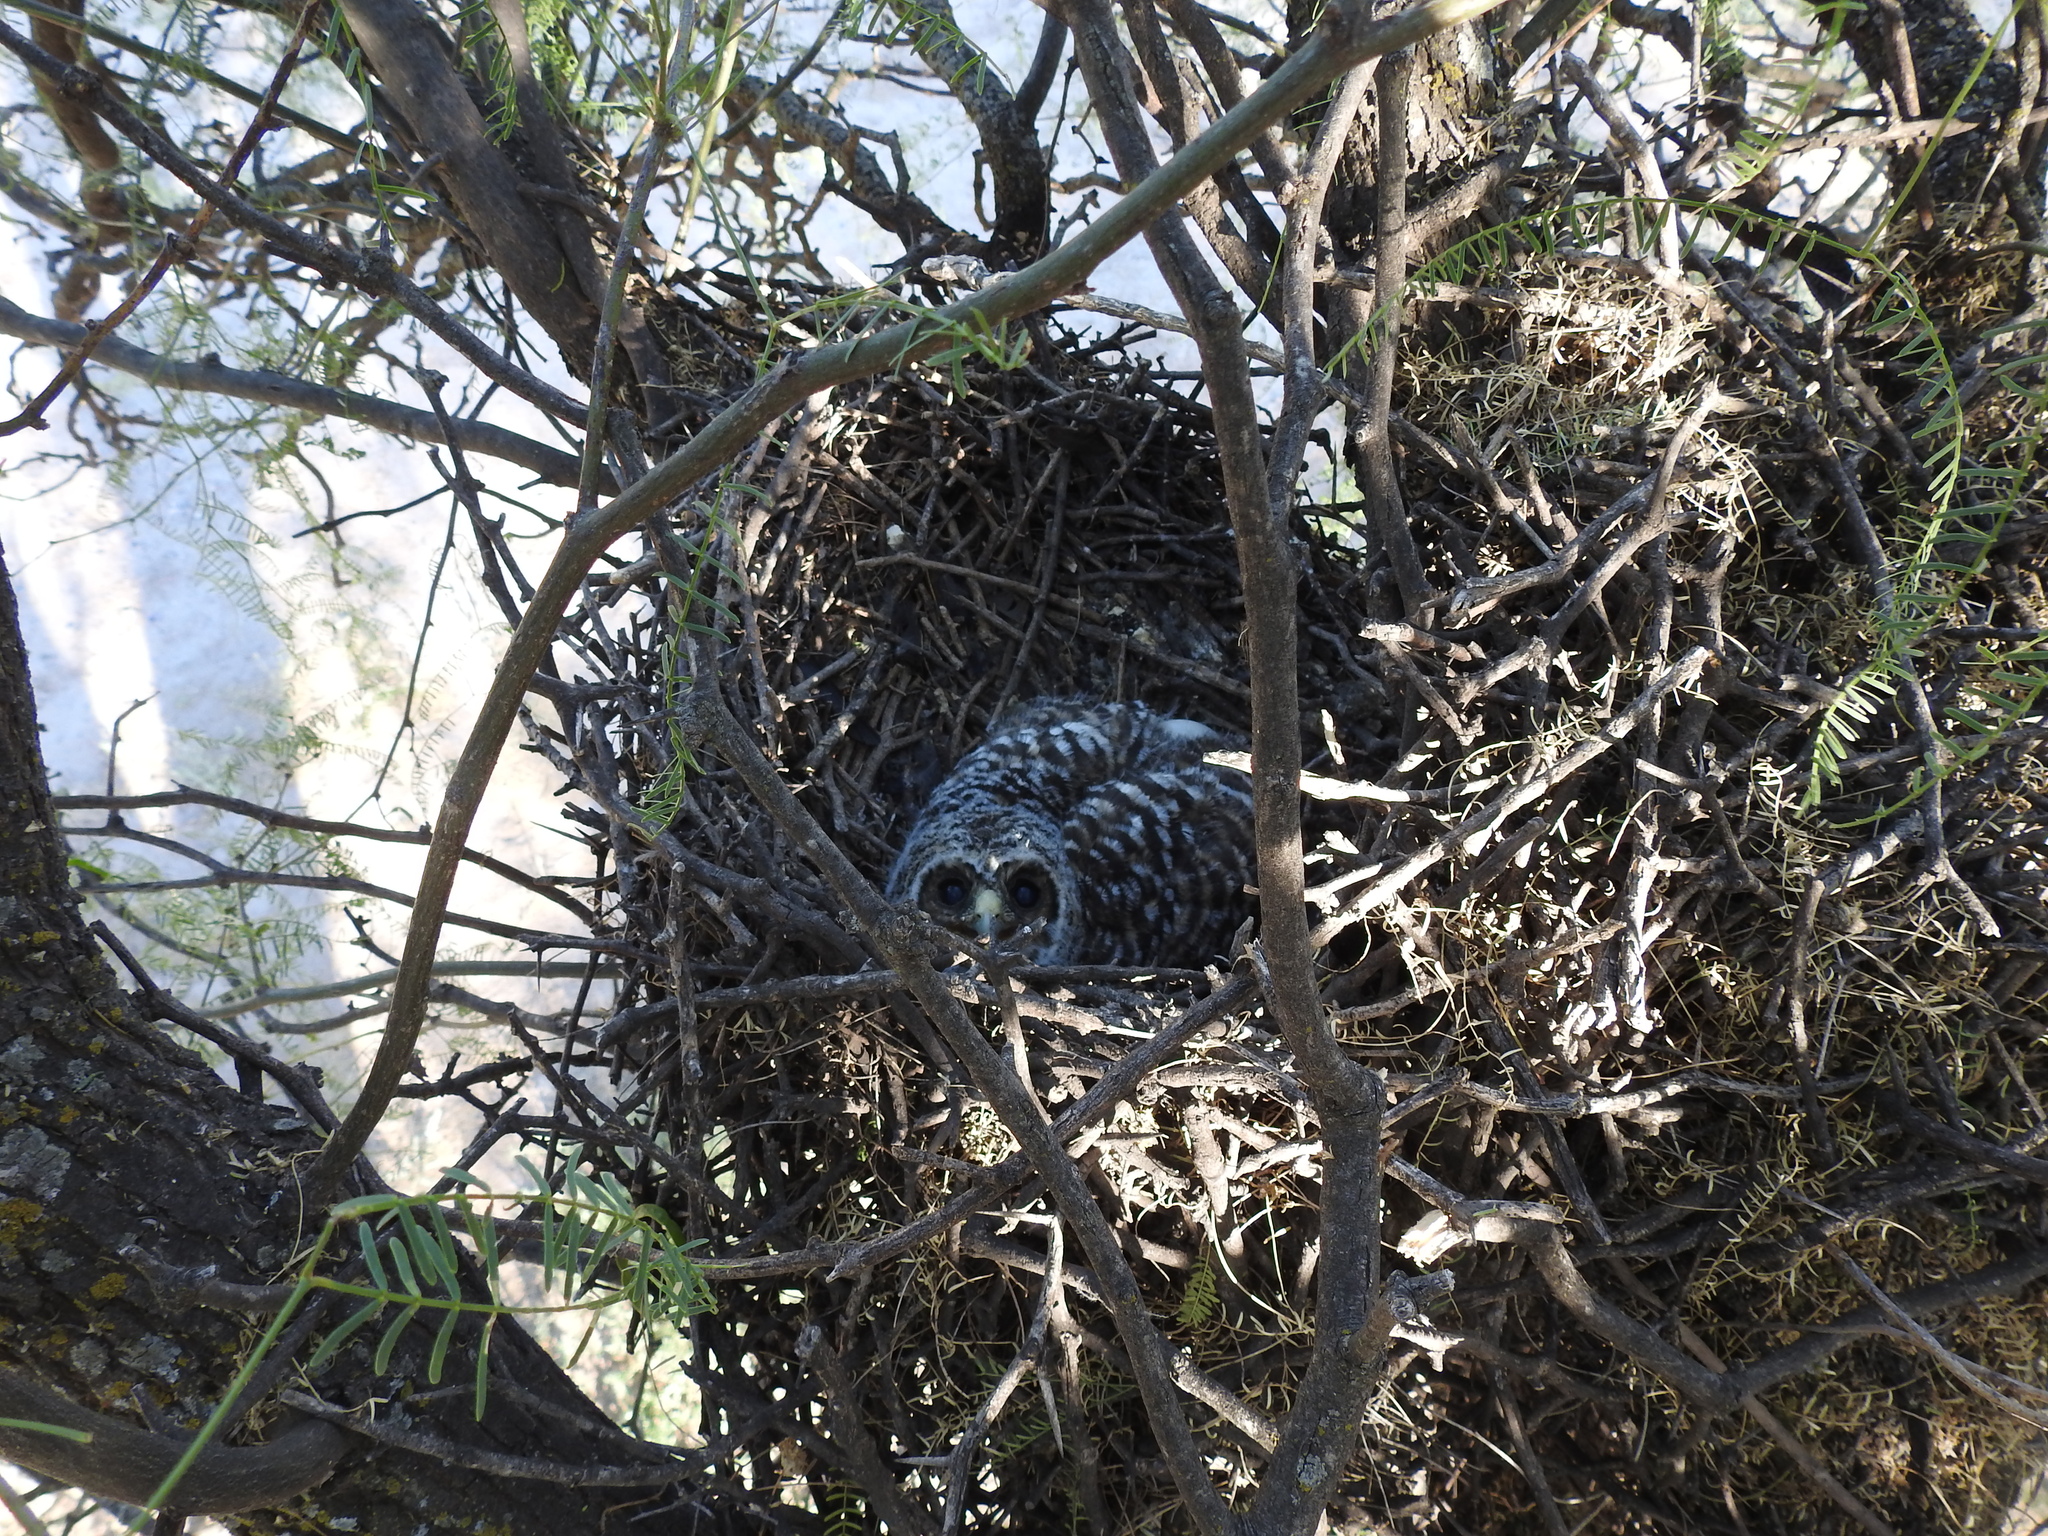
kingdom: Animalia
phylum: Chordata
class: Aves
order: Strigiformes
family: Strigidae
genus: Strix
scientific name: Strix chacoensis
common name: Chaco owl
